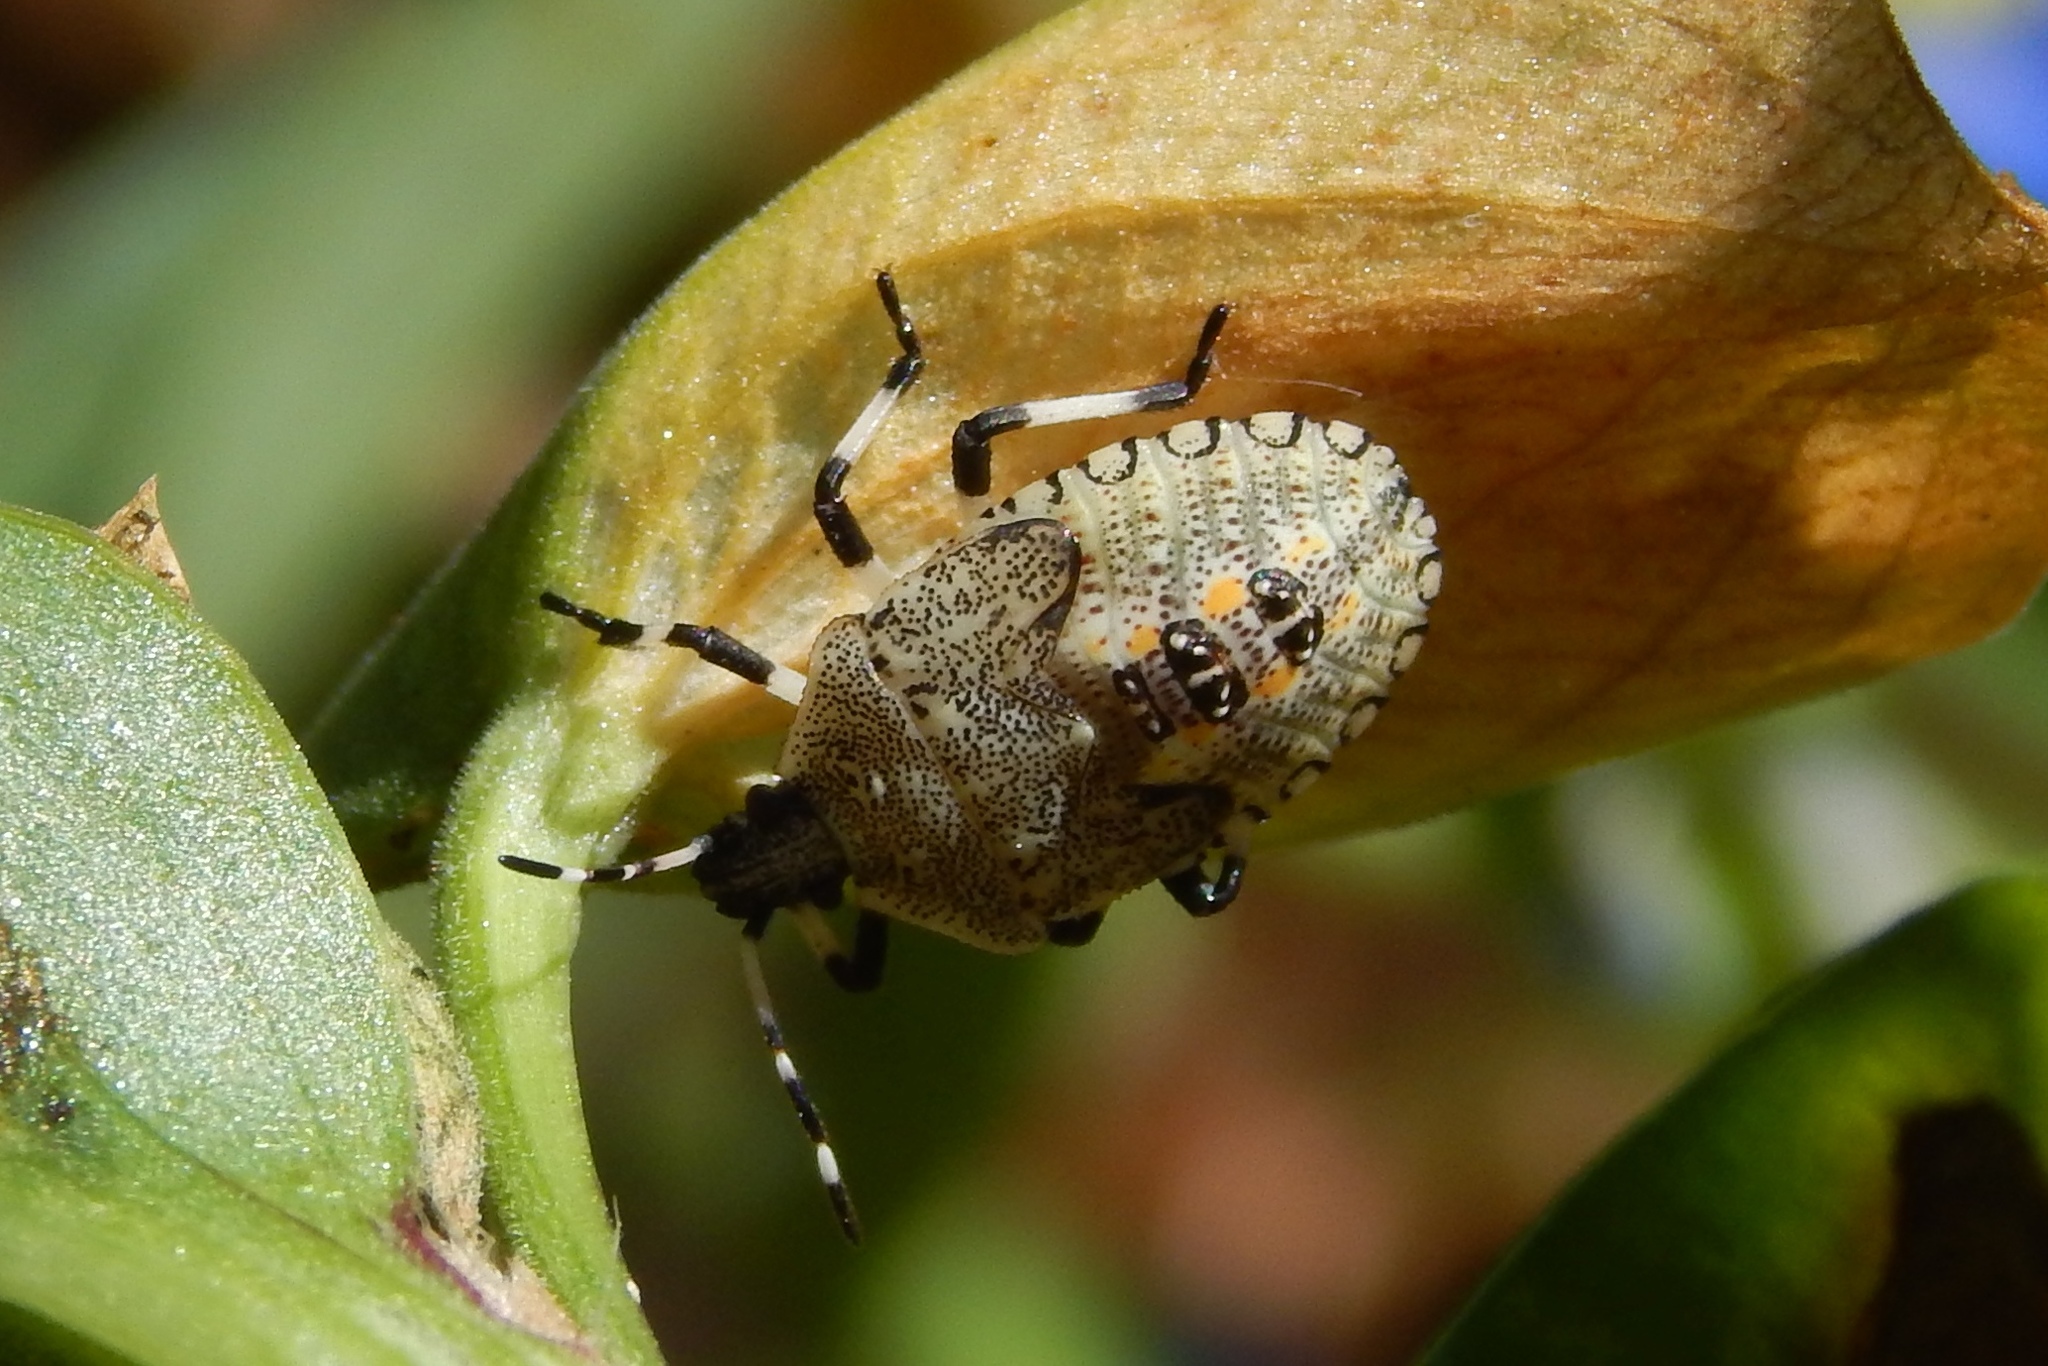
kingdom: Animalia
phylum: Arthropoda
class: Insecta
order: Hemiptera
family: Pentatomidae
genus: Proxys
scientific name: Proxys punctulatus
